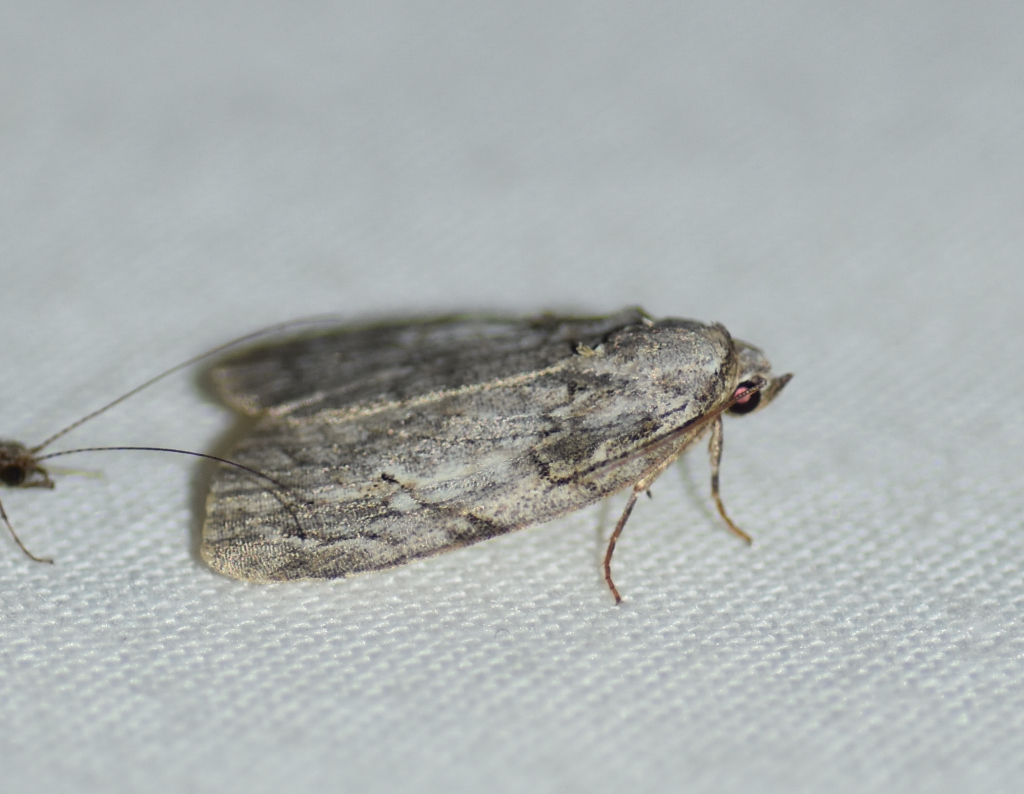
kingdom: Animalia
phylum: Arthropoda
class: Insecta
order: Lepidoptera
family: Noctuidae
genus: Balsa
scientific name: Balsa labecula
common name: White-blotched balsa moth
